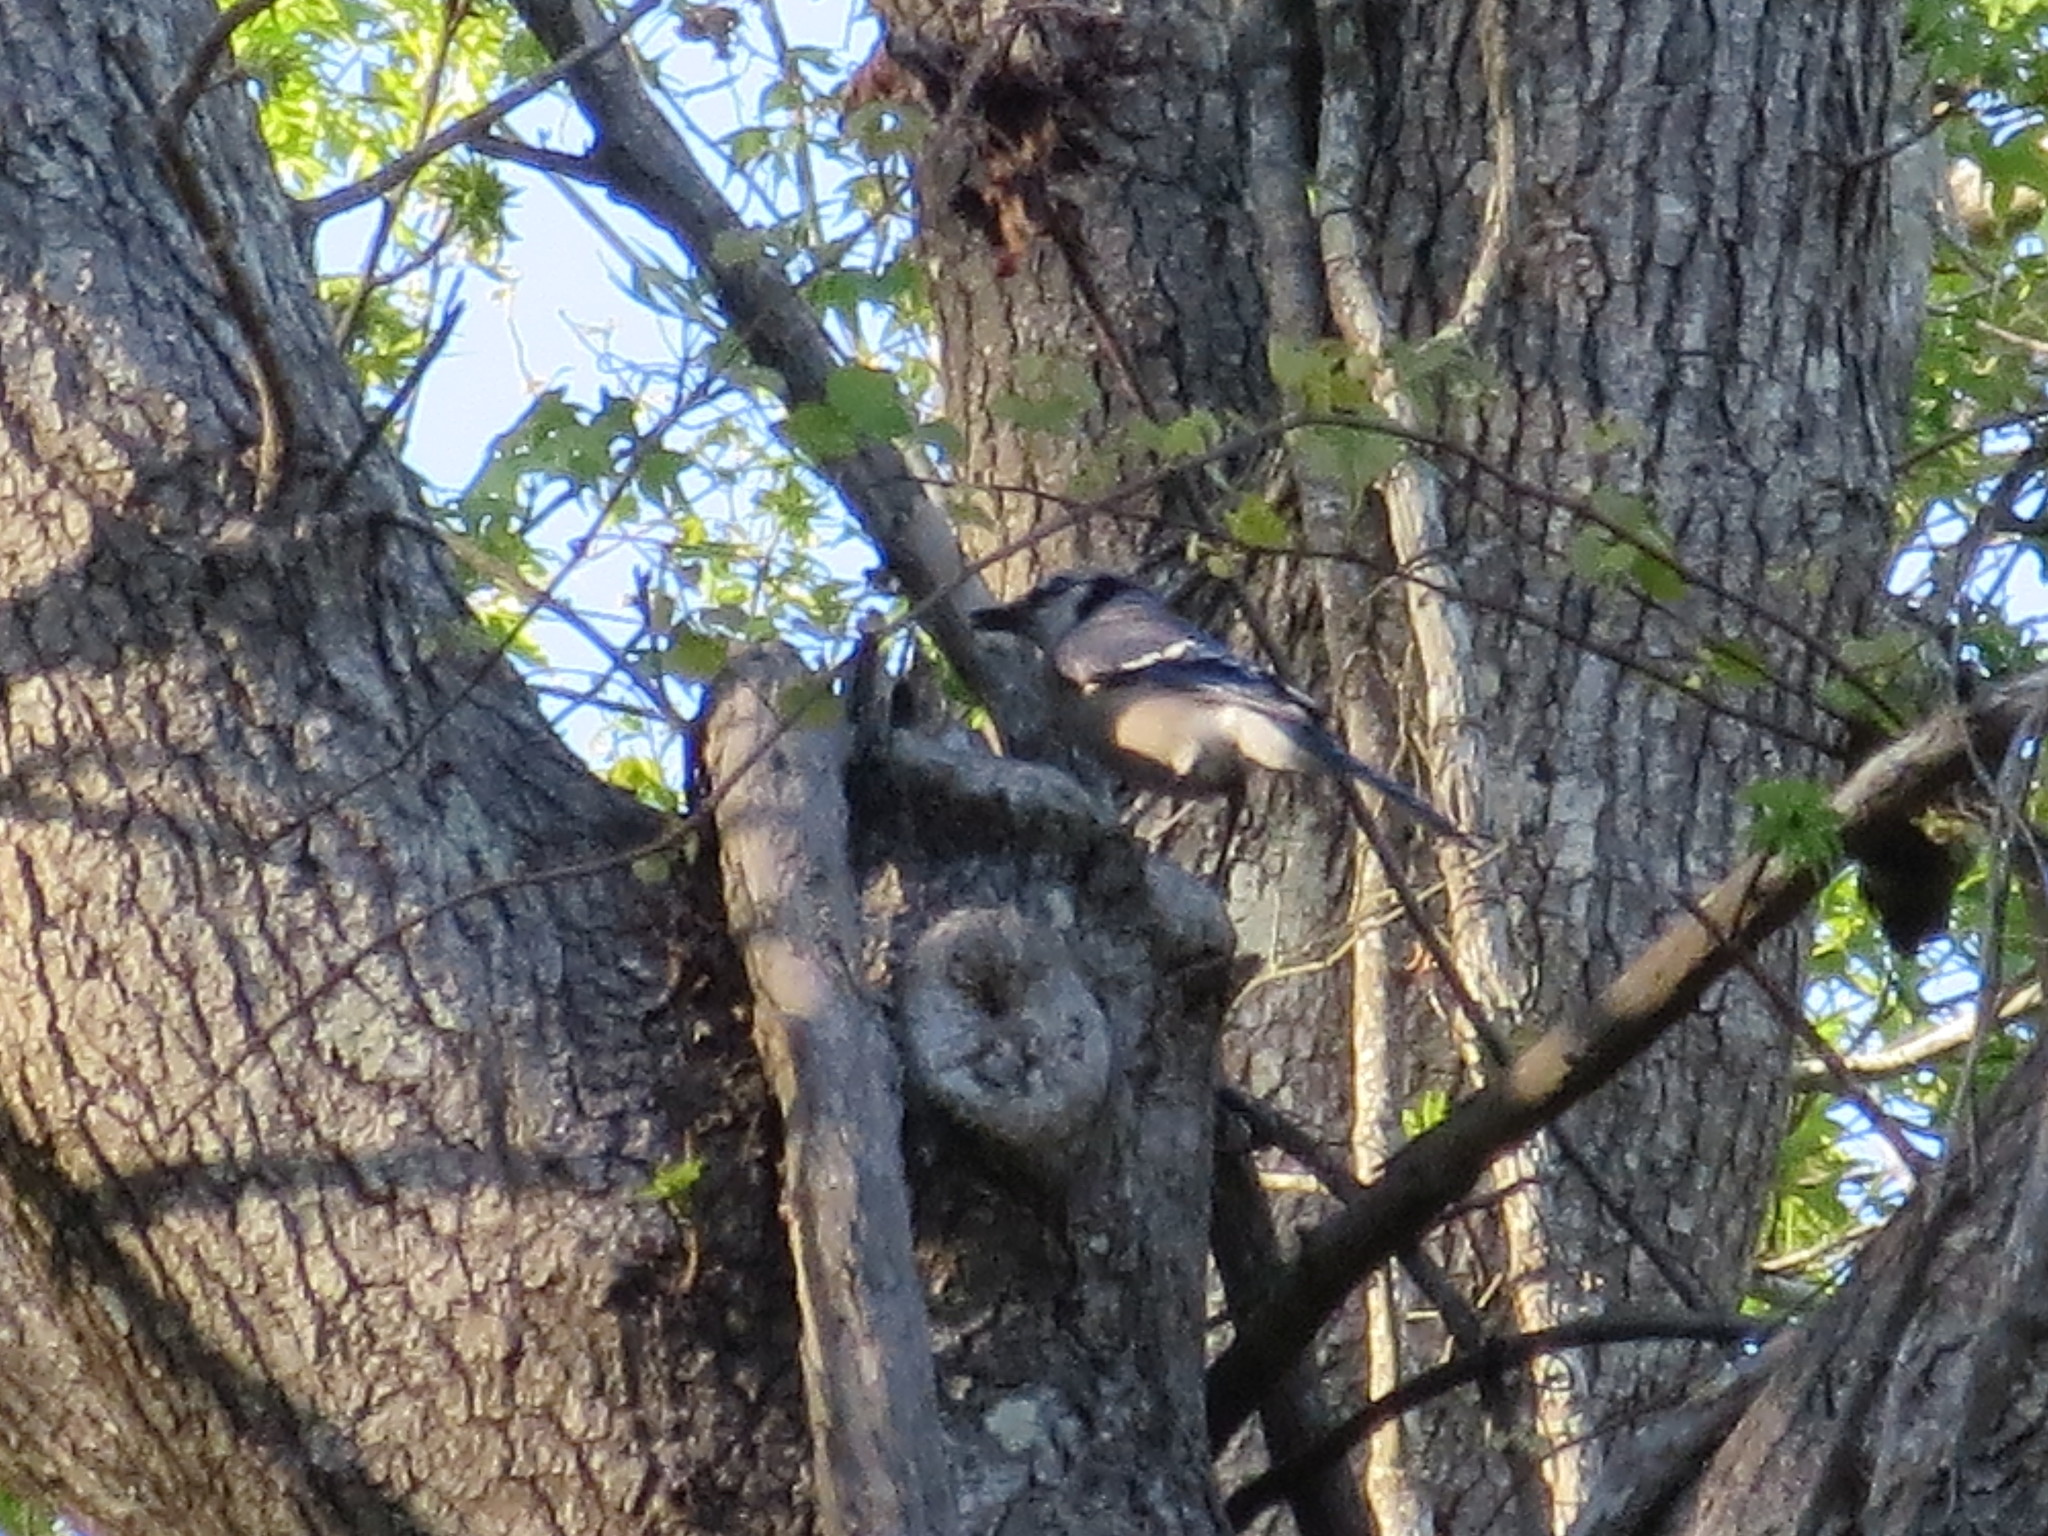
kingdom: Animalia
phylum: Chordata
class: Aves
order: Passeriformes
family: Corvidae
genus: Cyanocitta
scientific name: Cyanocitta cristata
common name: Blue jay
